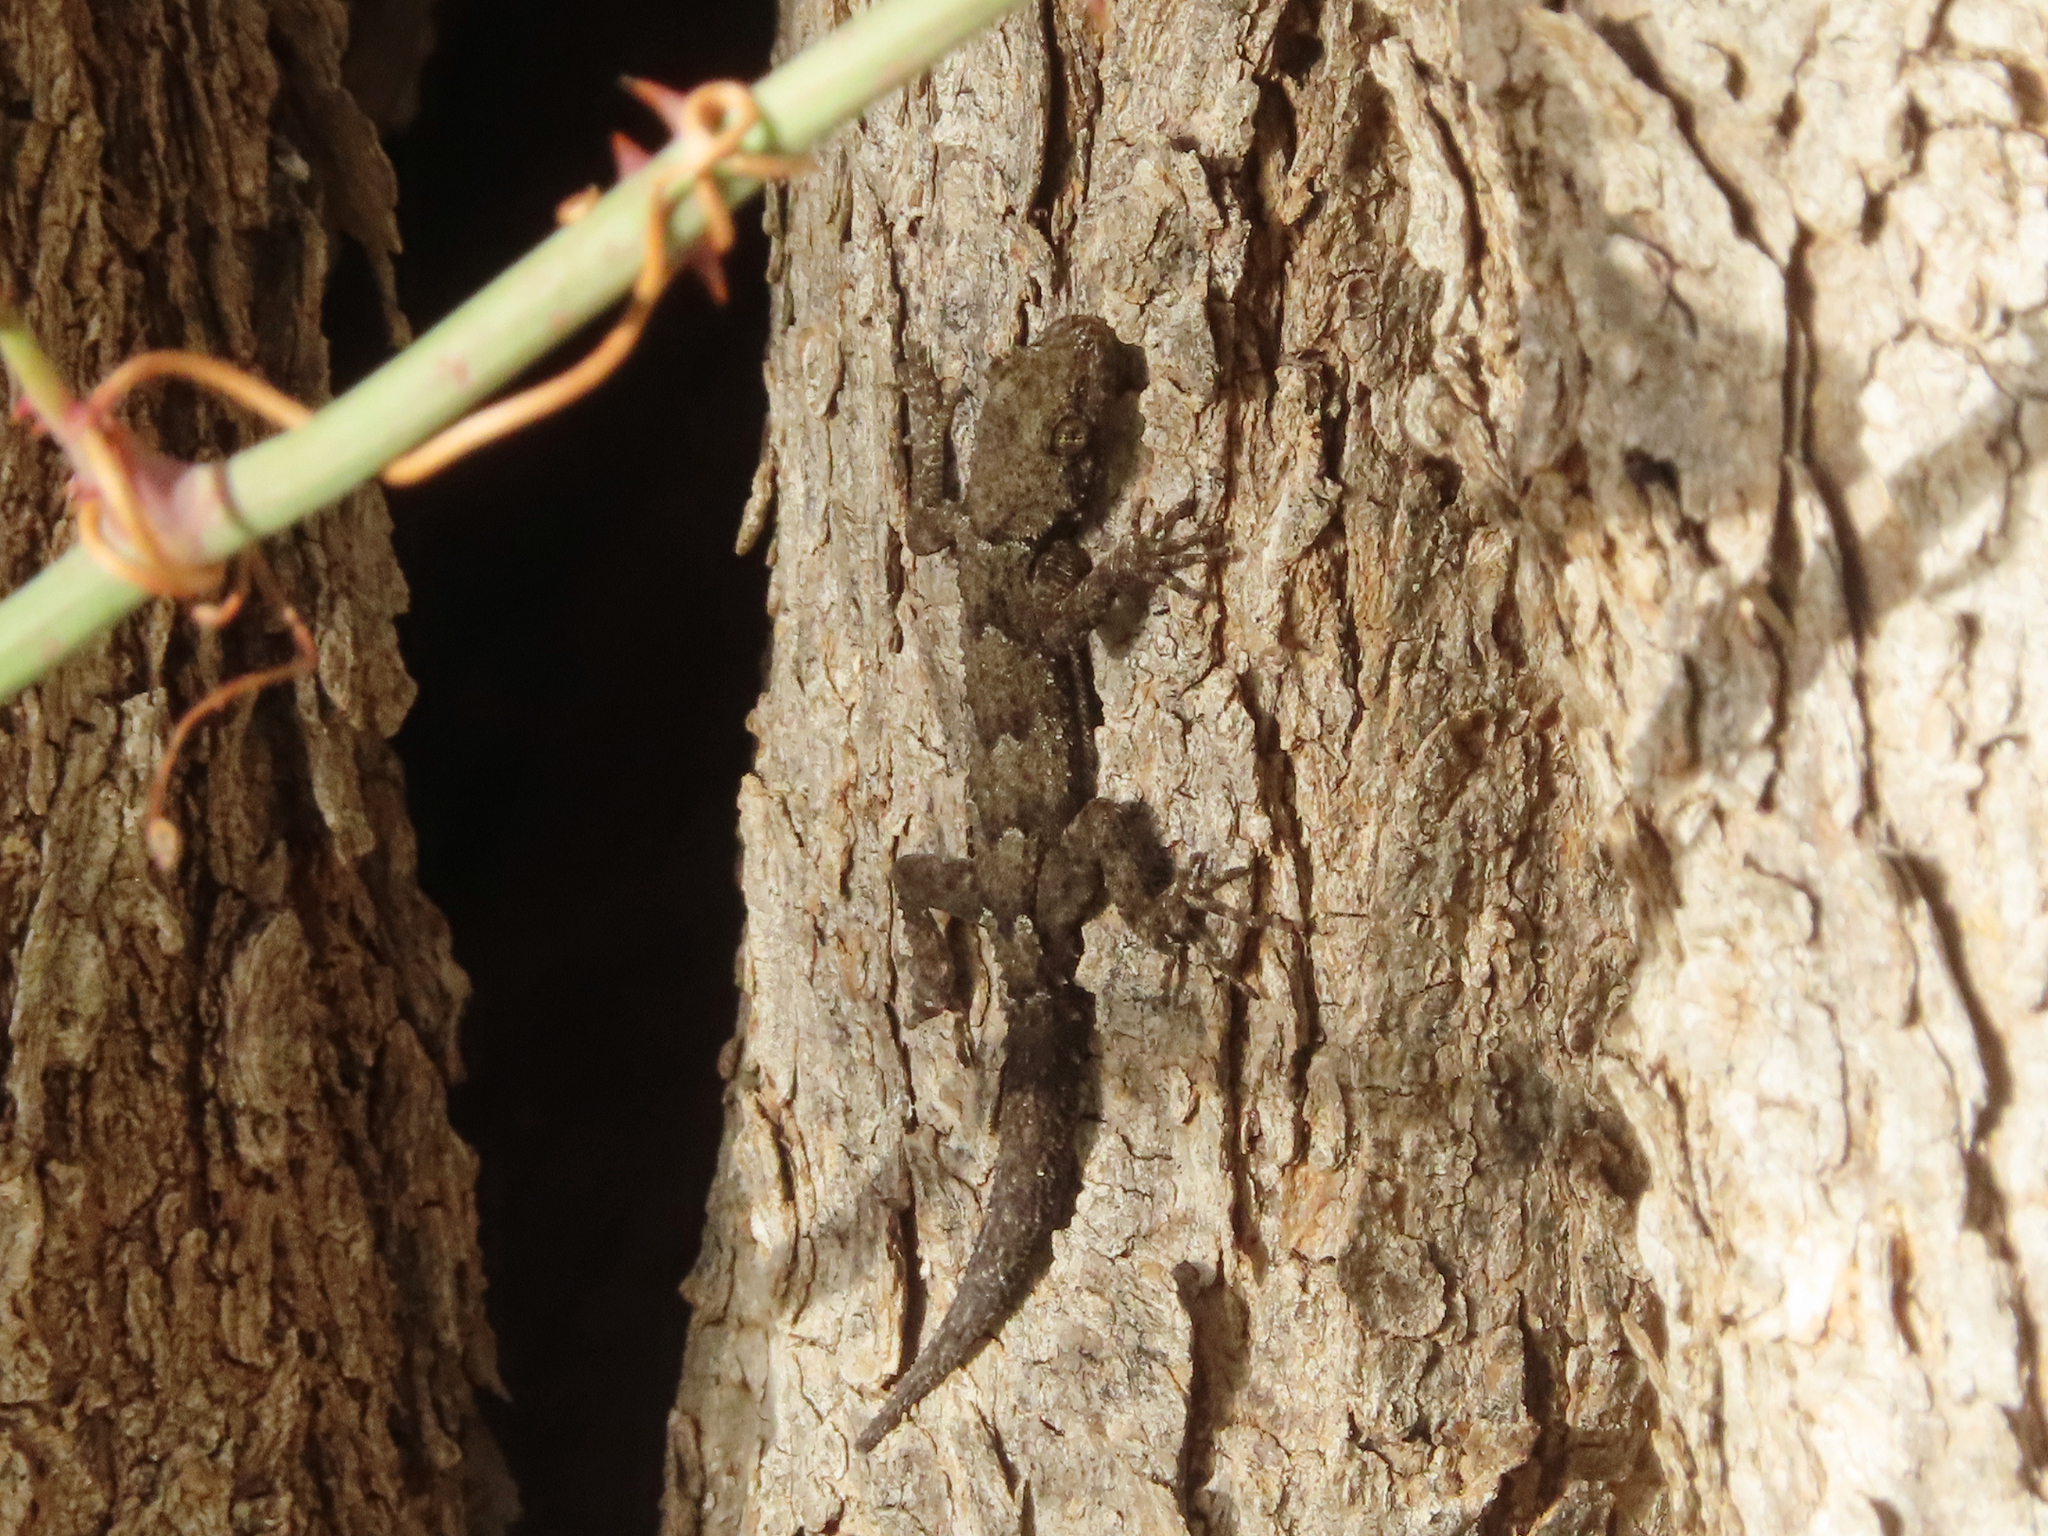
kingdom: Animalia
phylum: Chordata
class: Squamata
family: Gekkonidae
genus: Mediodactylus
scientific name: Mediodactylus kotschyi
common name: Kotschy's gecko
